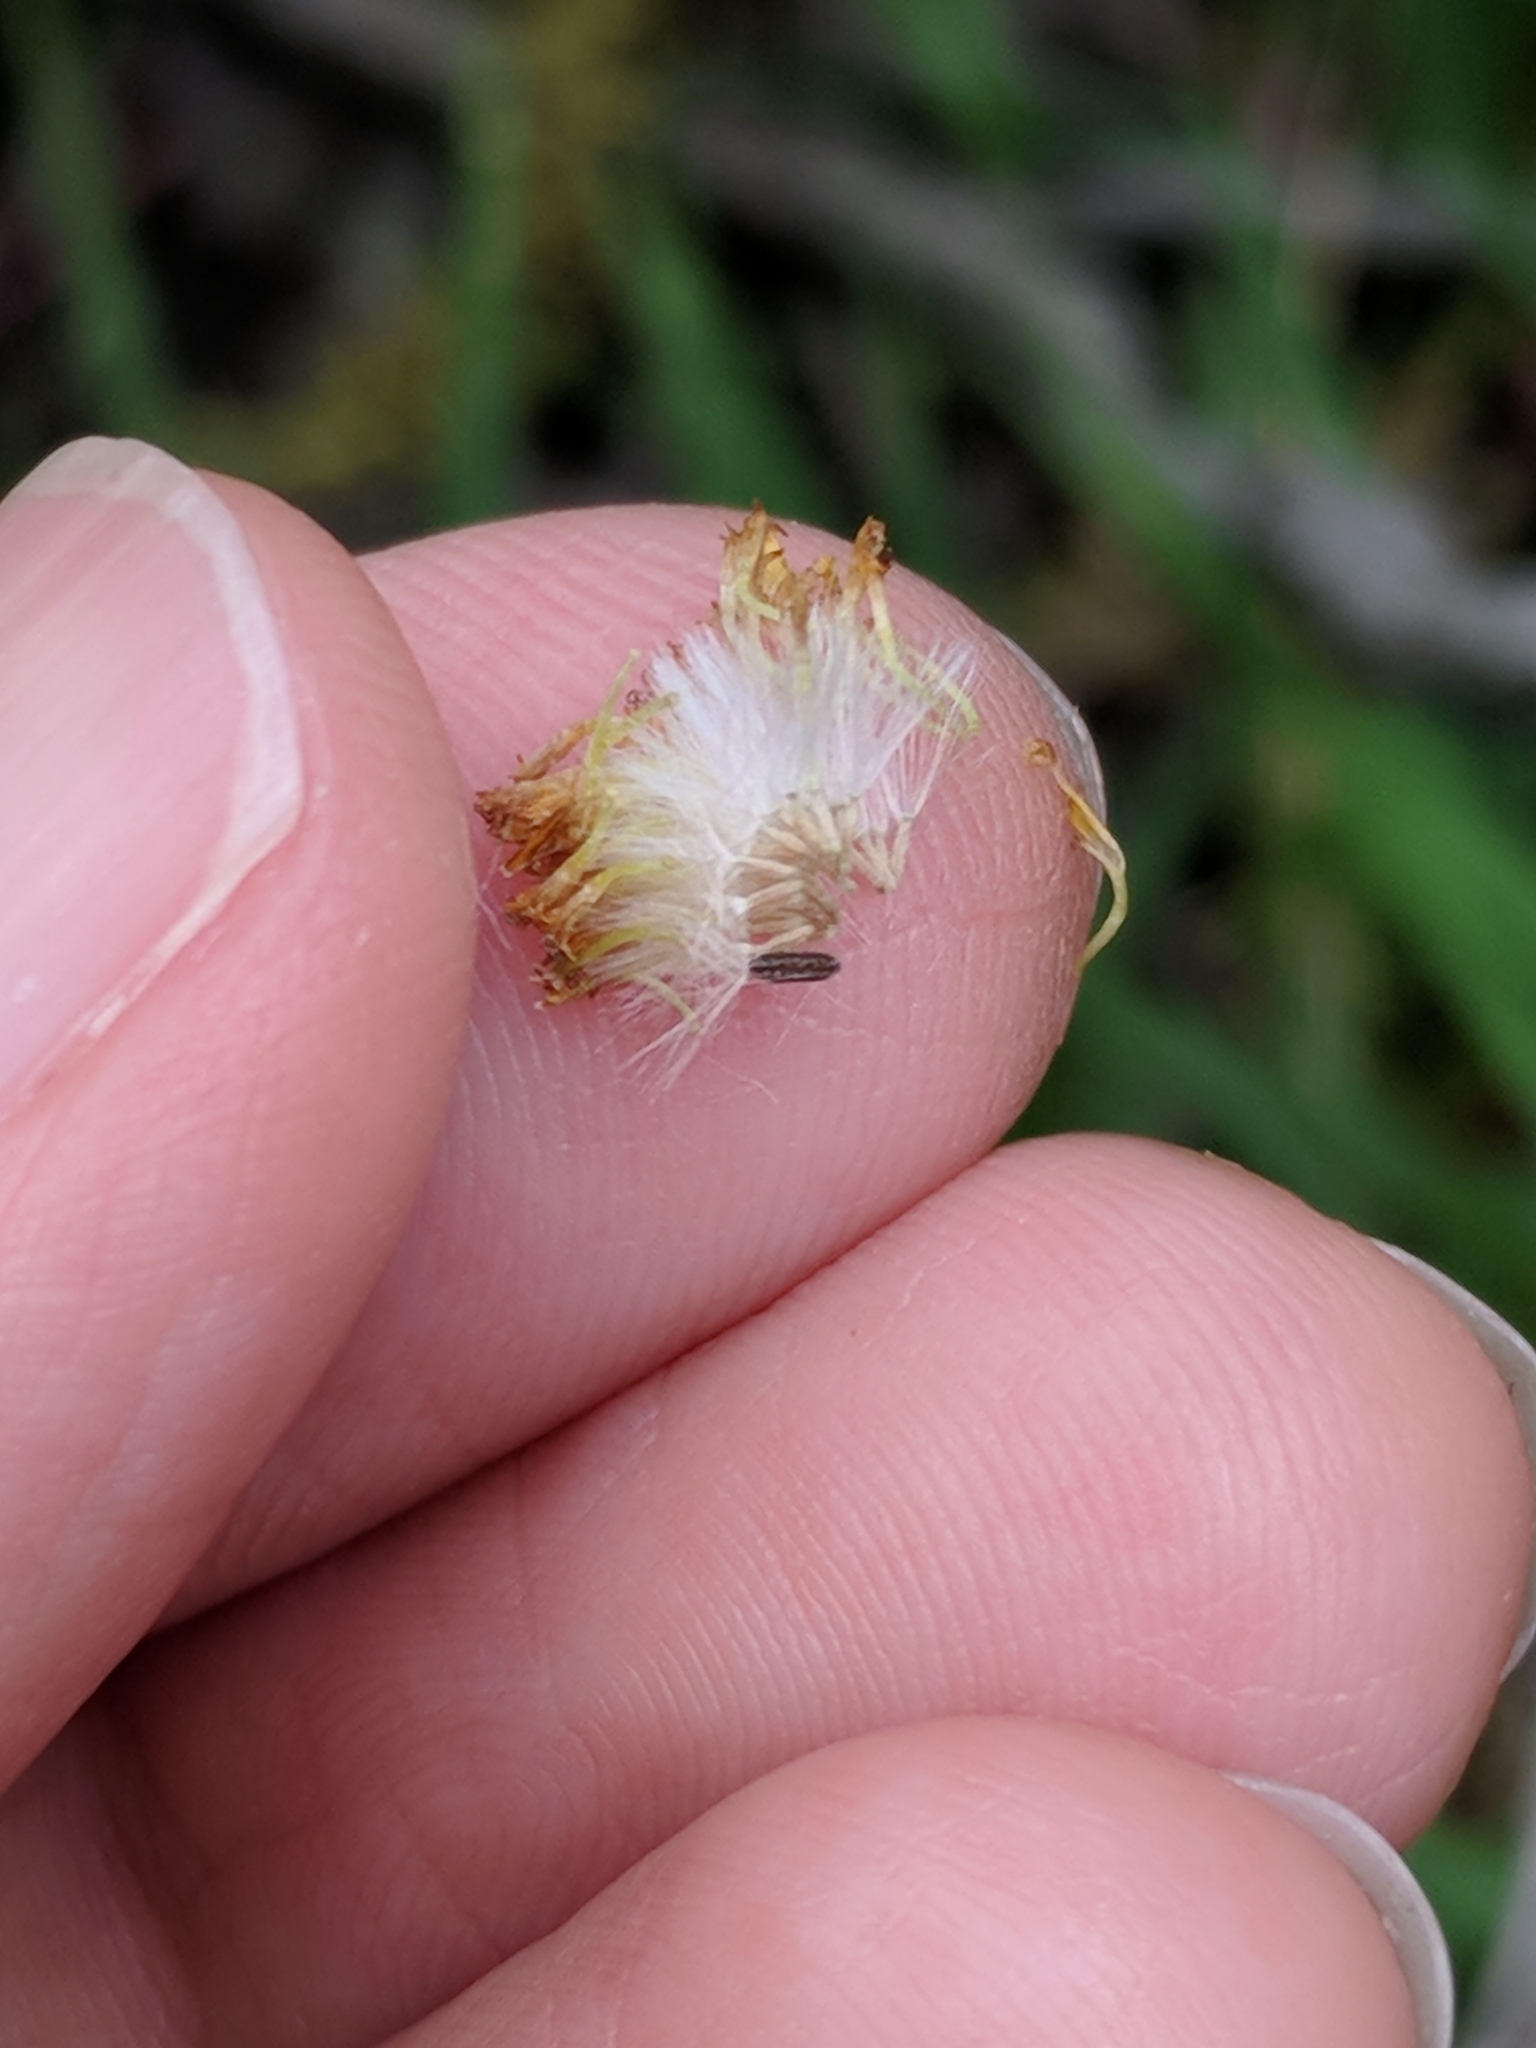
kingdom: Plantae
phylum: Tracheophyta
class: Magnoliopsida
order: Asterales
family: Asteraceae
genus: Packera
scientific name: Packera tampicana
